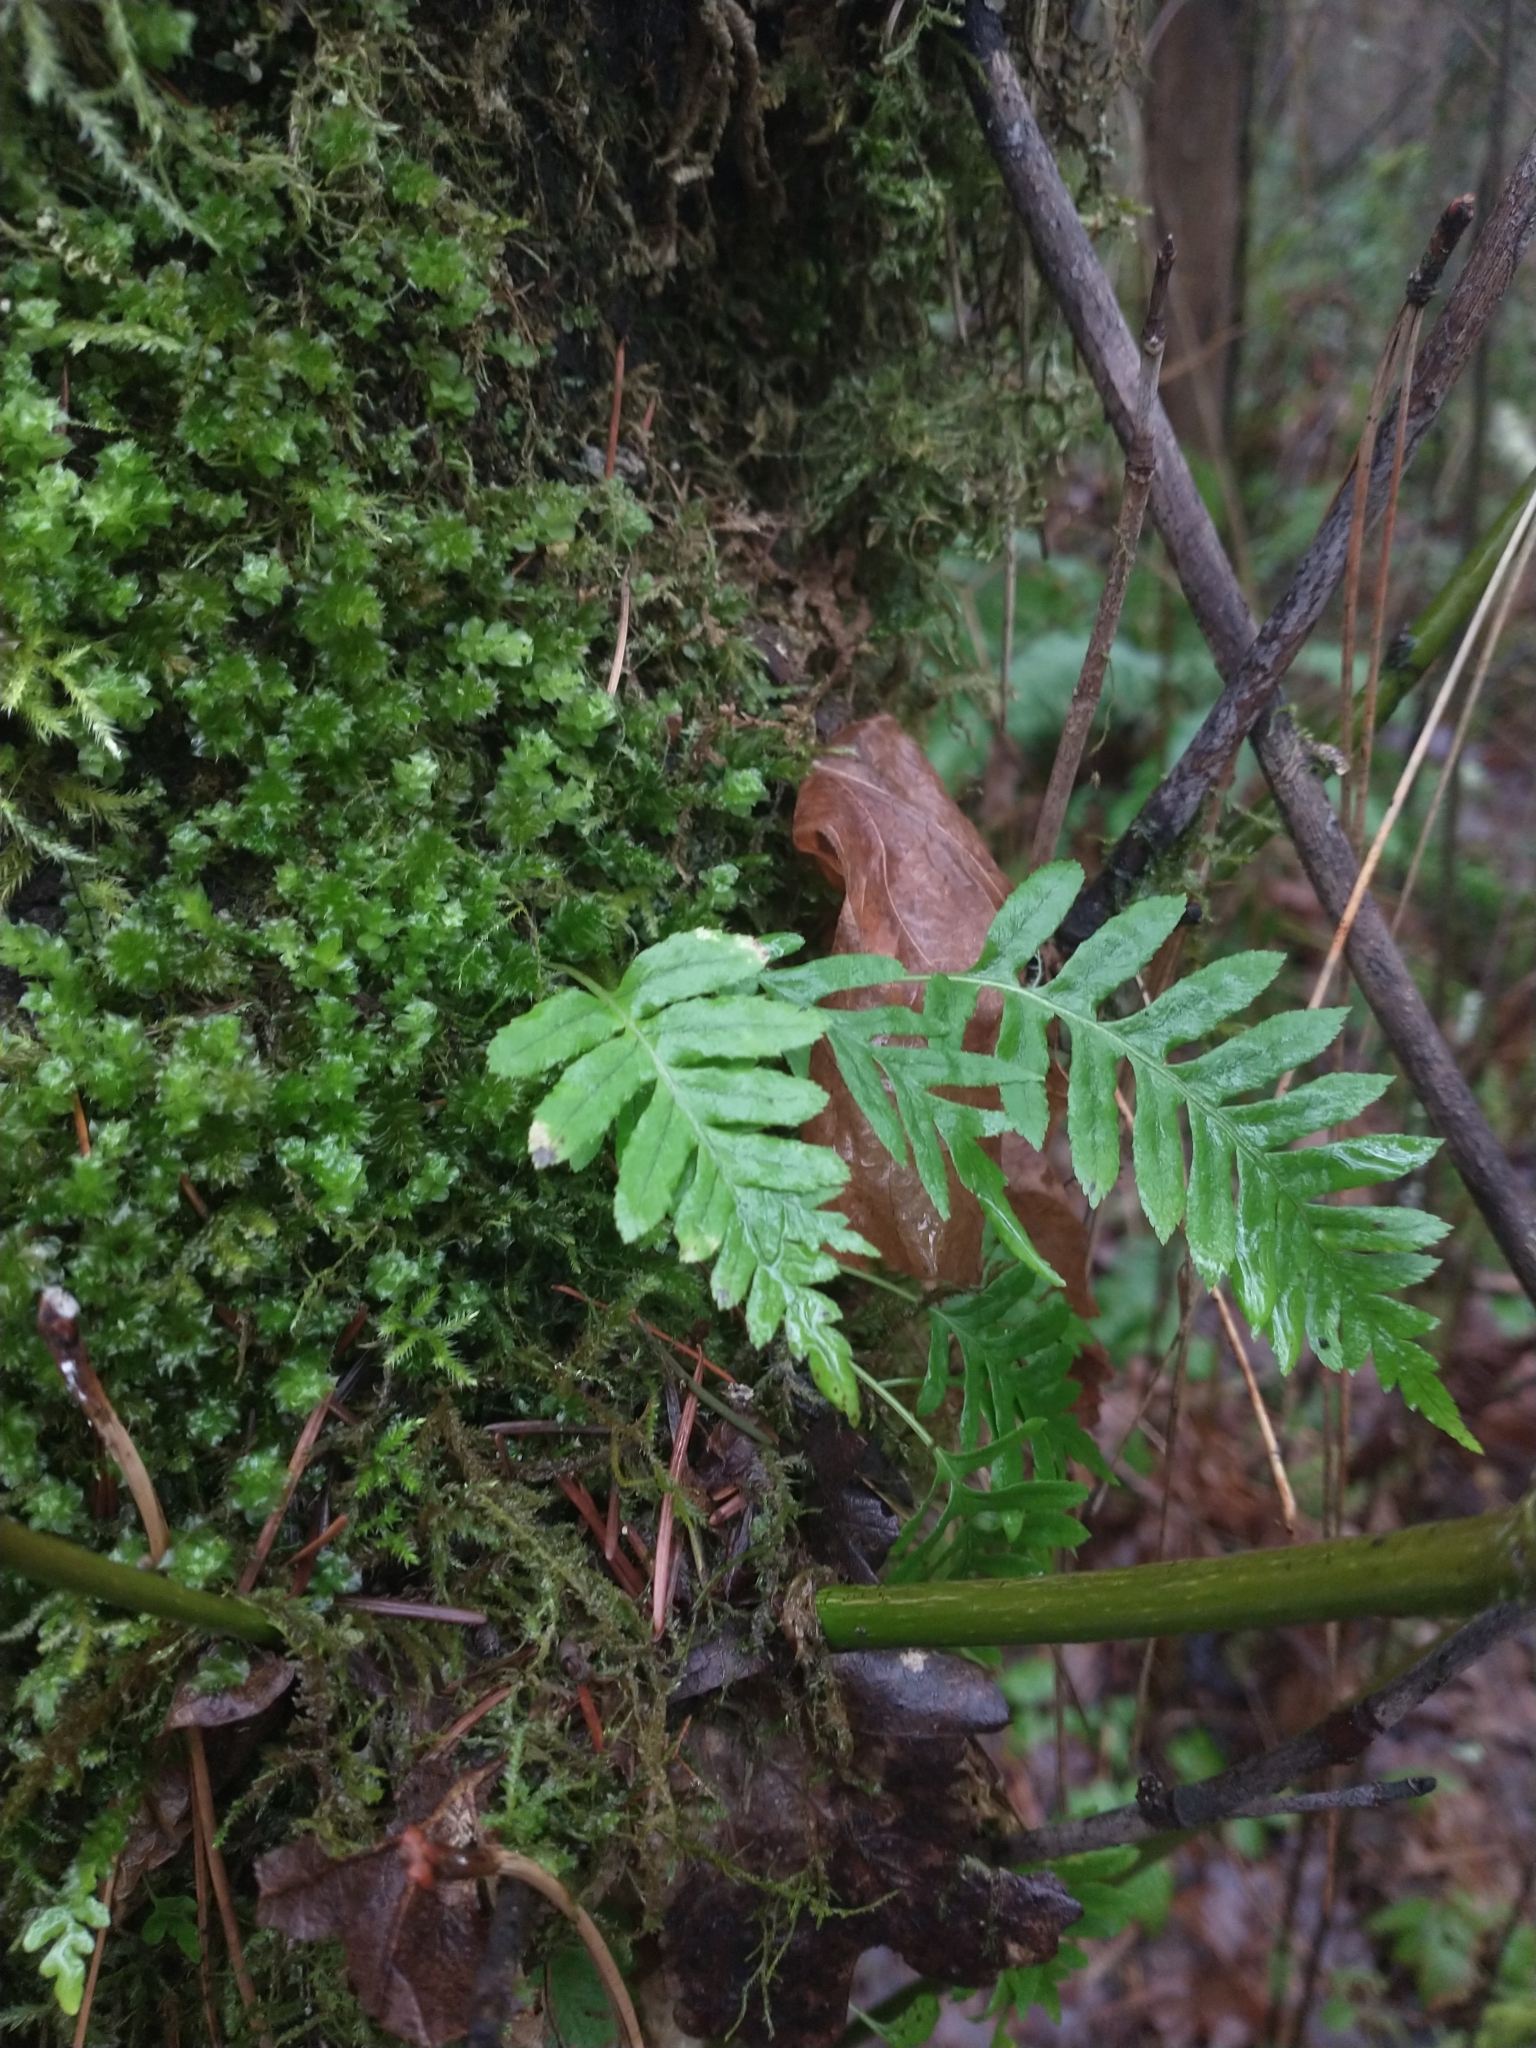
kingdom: Plantae
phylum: Tracheophyta
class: Polypodiopsida
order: Polypodiales
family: Polypodiaceae
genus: Polypodium
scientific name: Polypodium glycyrrhiza
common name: Licorice fern
